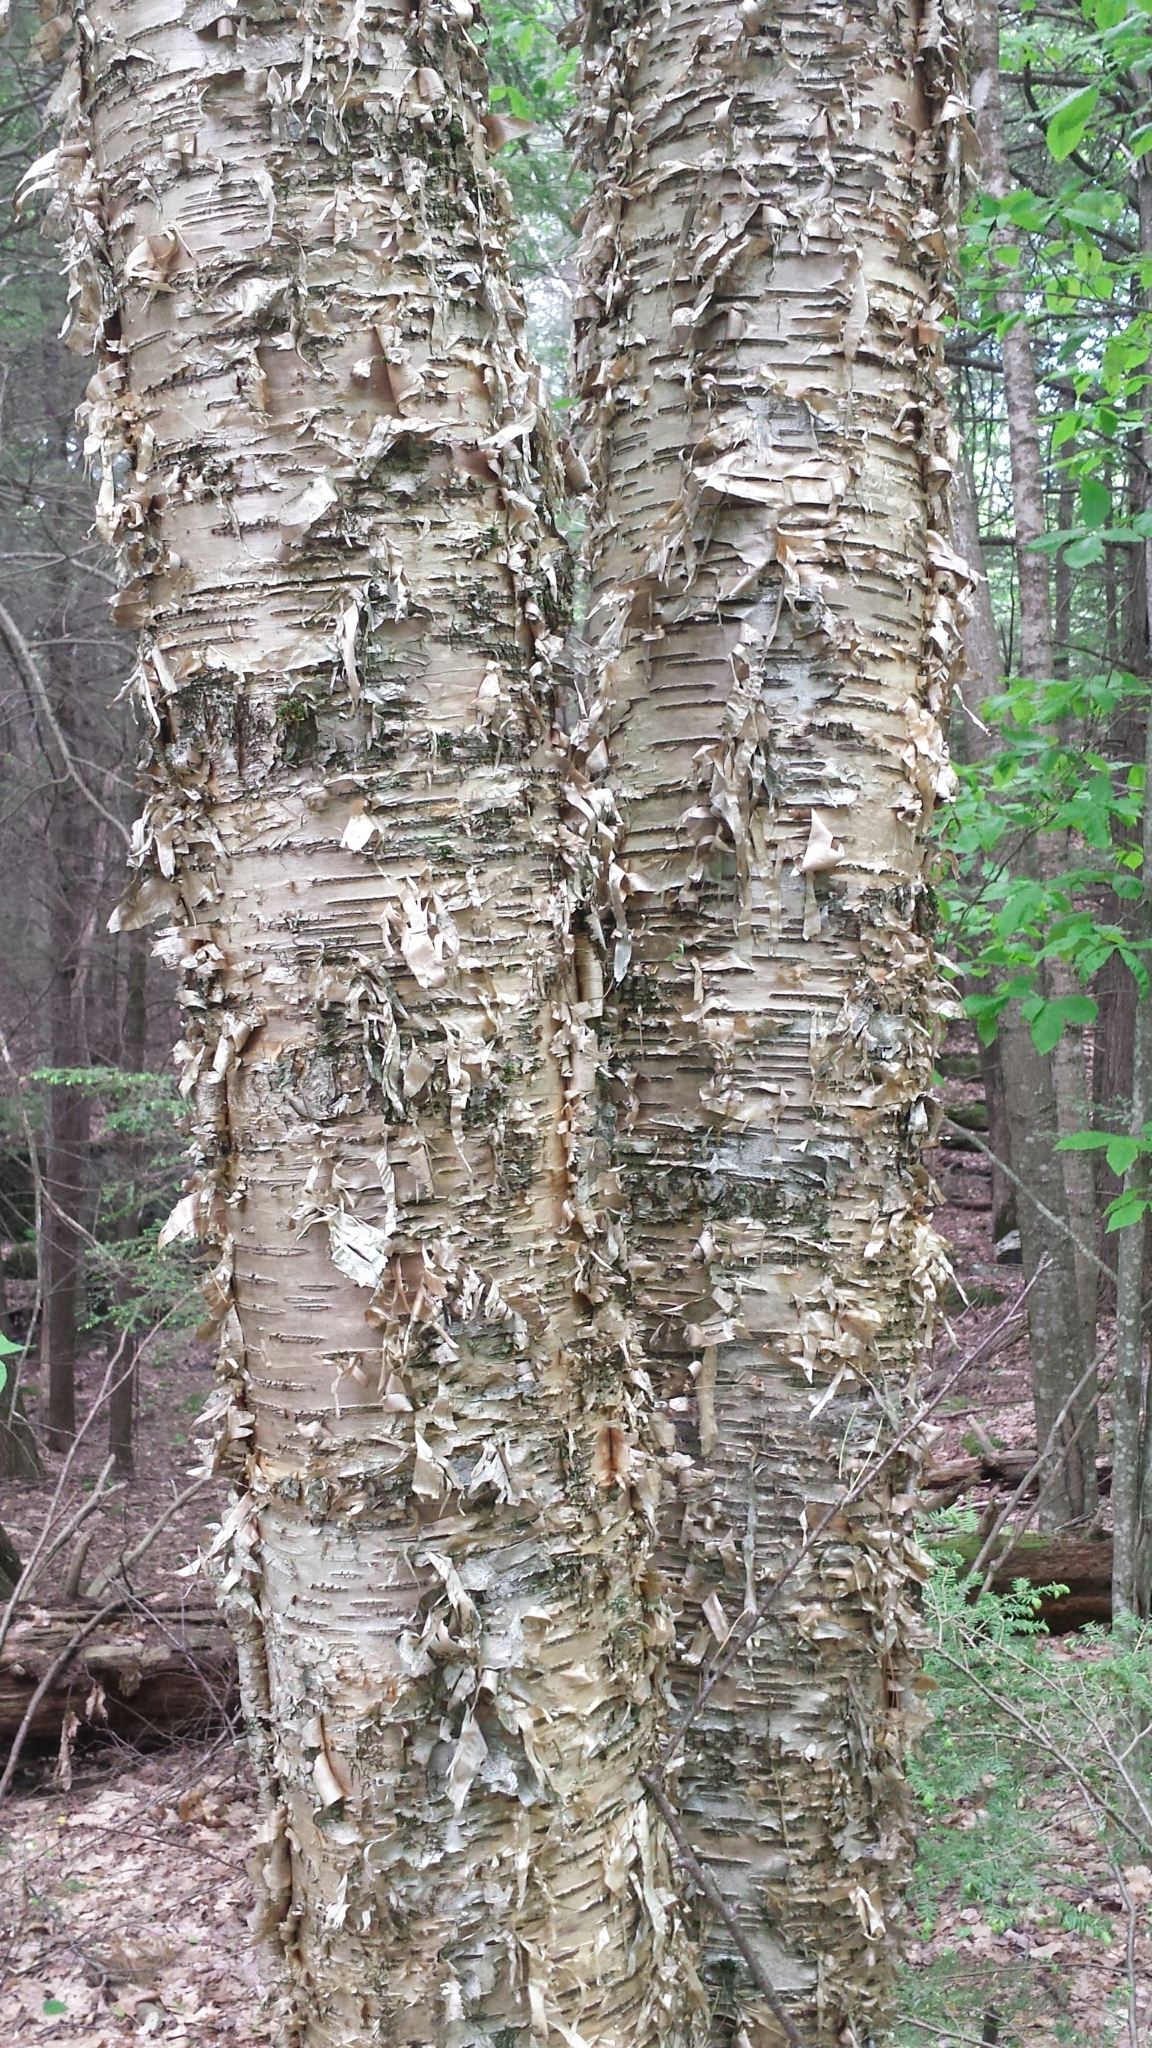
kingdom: Plantae
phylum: Tracheophyta
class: Magnoliopsida
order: Fagales
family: Betulaceae
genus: Betula
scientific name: Betula alleghaniensis
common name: Yellow birch
